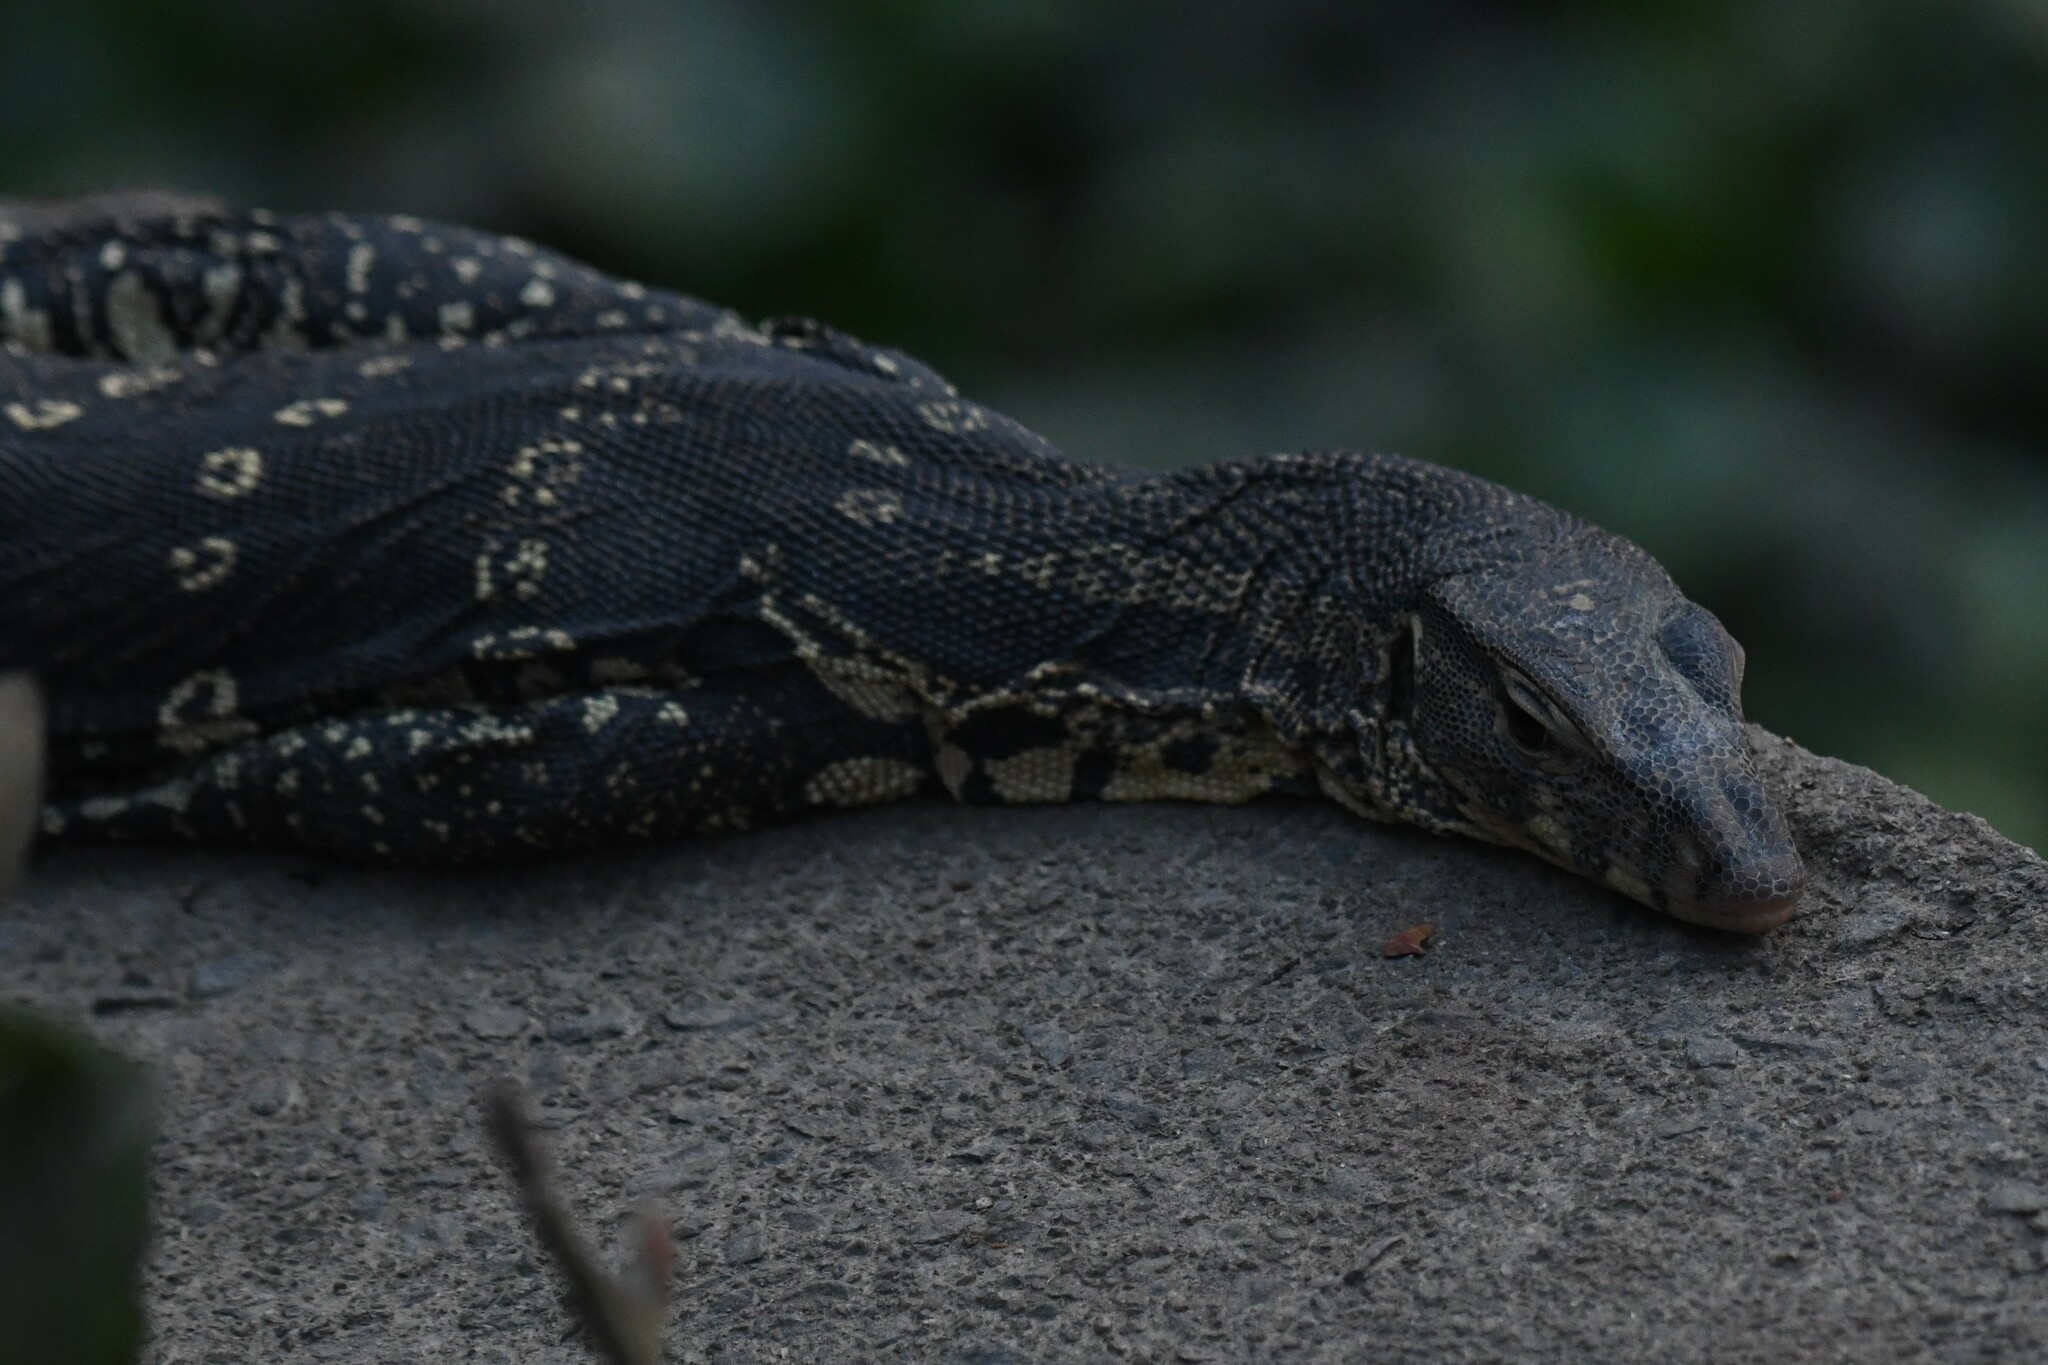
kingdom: Animalia
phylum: Chordata
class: Squamata
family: Varanidae
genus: Varanus
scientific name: Varanus salvator
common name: Common water monitor
